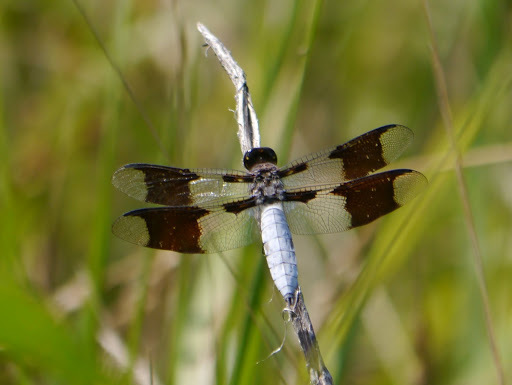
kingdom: Animalia
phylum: Arthropoda
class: Insecta
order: Odonata
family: Libellulidae
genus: Plathemis
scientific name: Plathemis lydia
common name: Common whitetail
